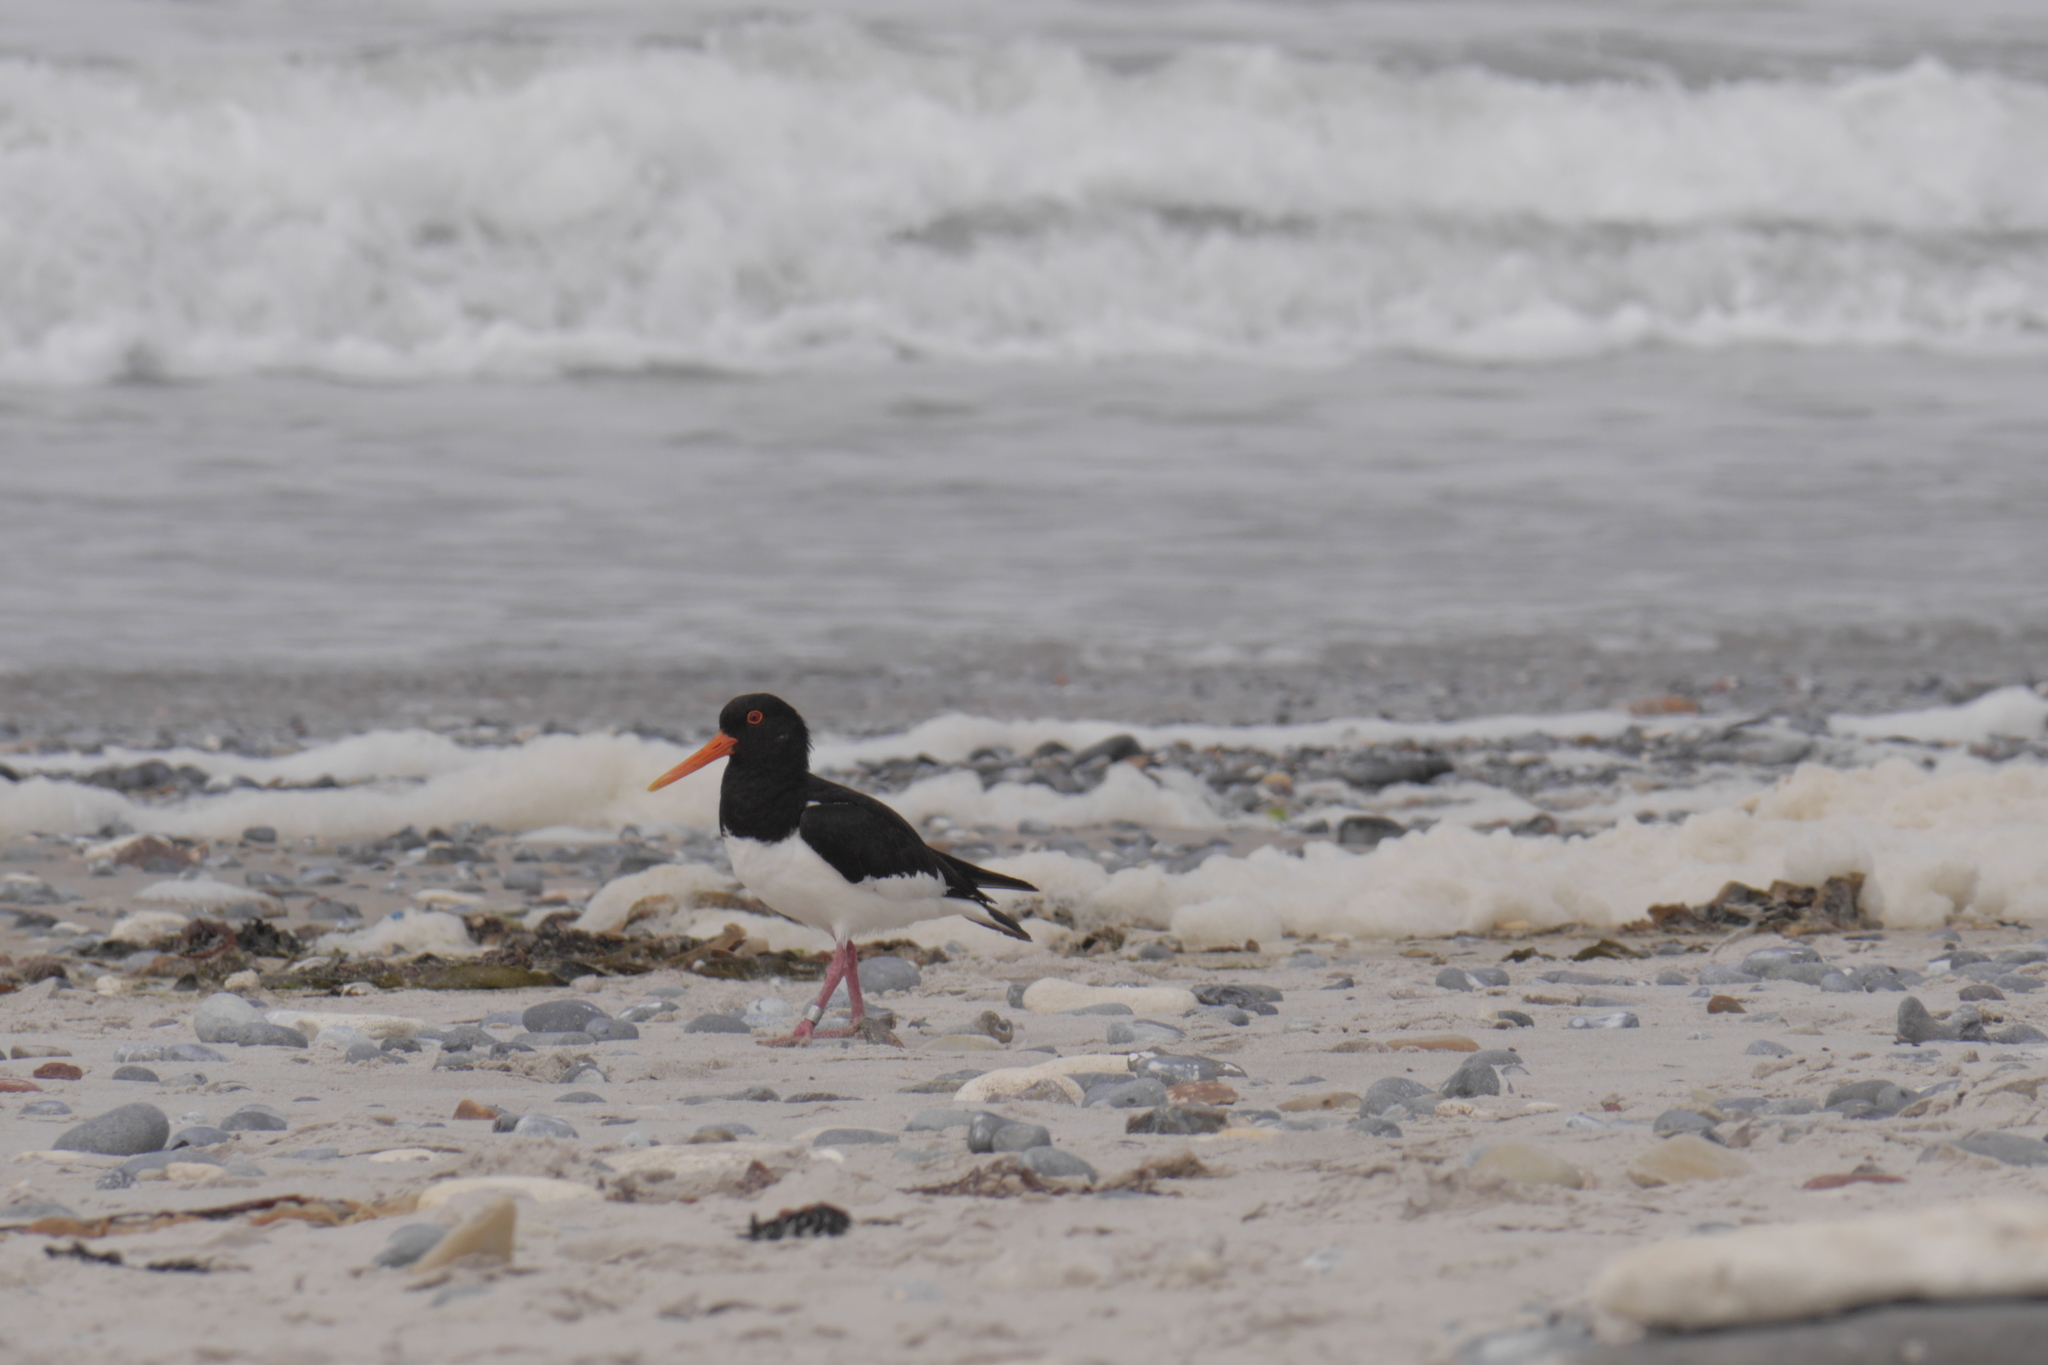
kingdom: Animalia
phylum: Chordata
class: Aves
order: Charadriiformes
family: Haematopodidae
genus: Haematopus
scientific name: Haematopus ostralegus
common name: Eurasian oystercatcher
